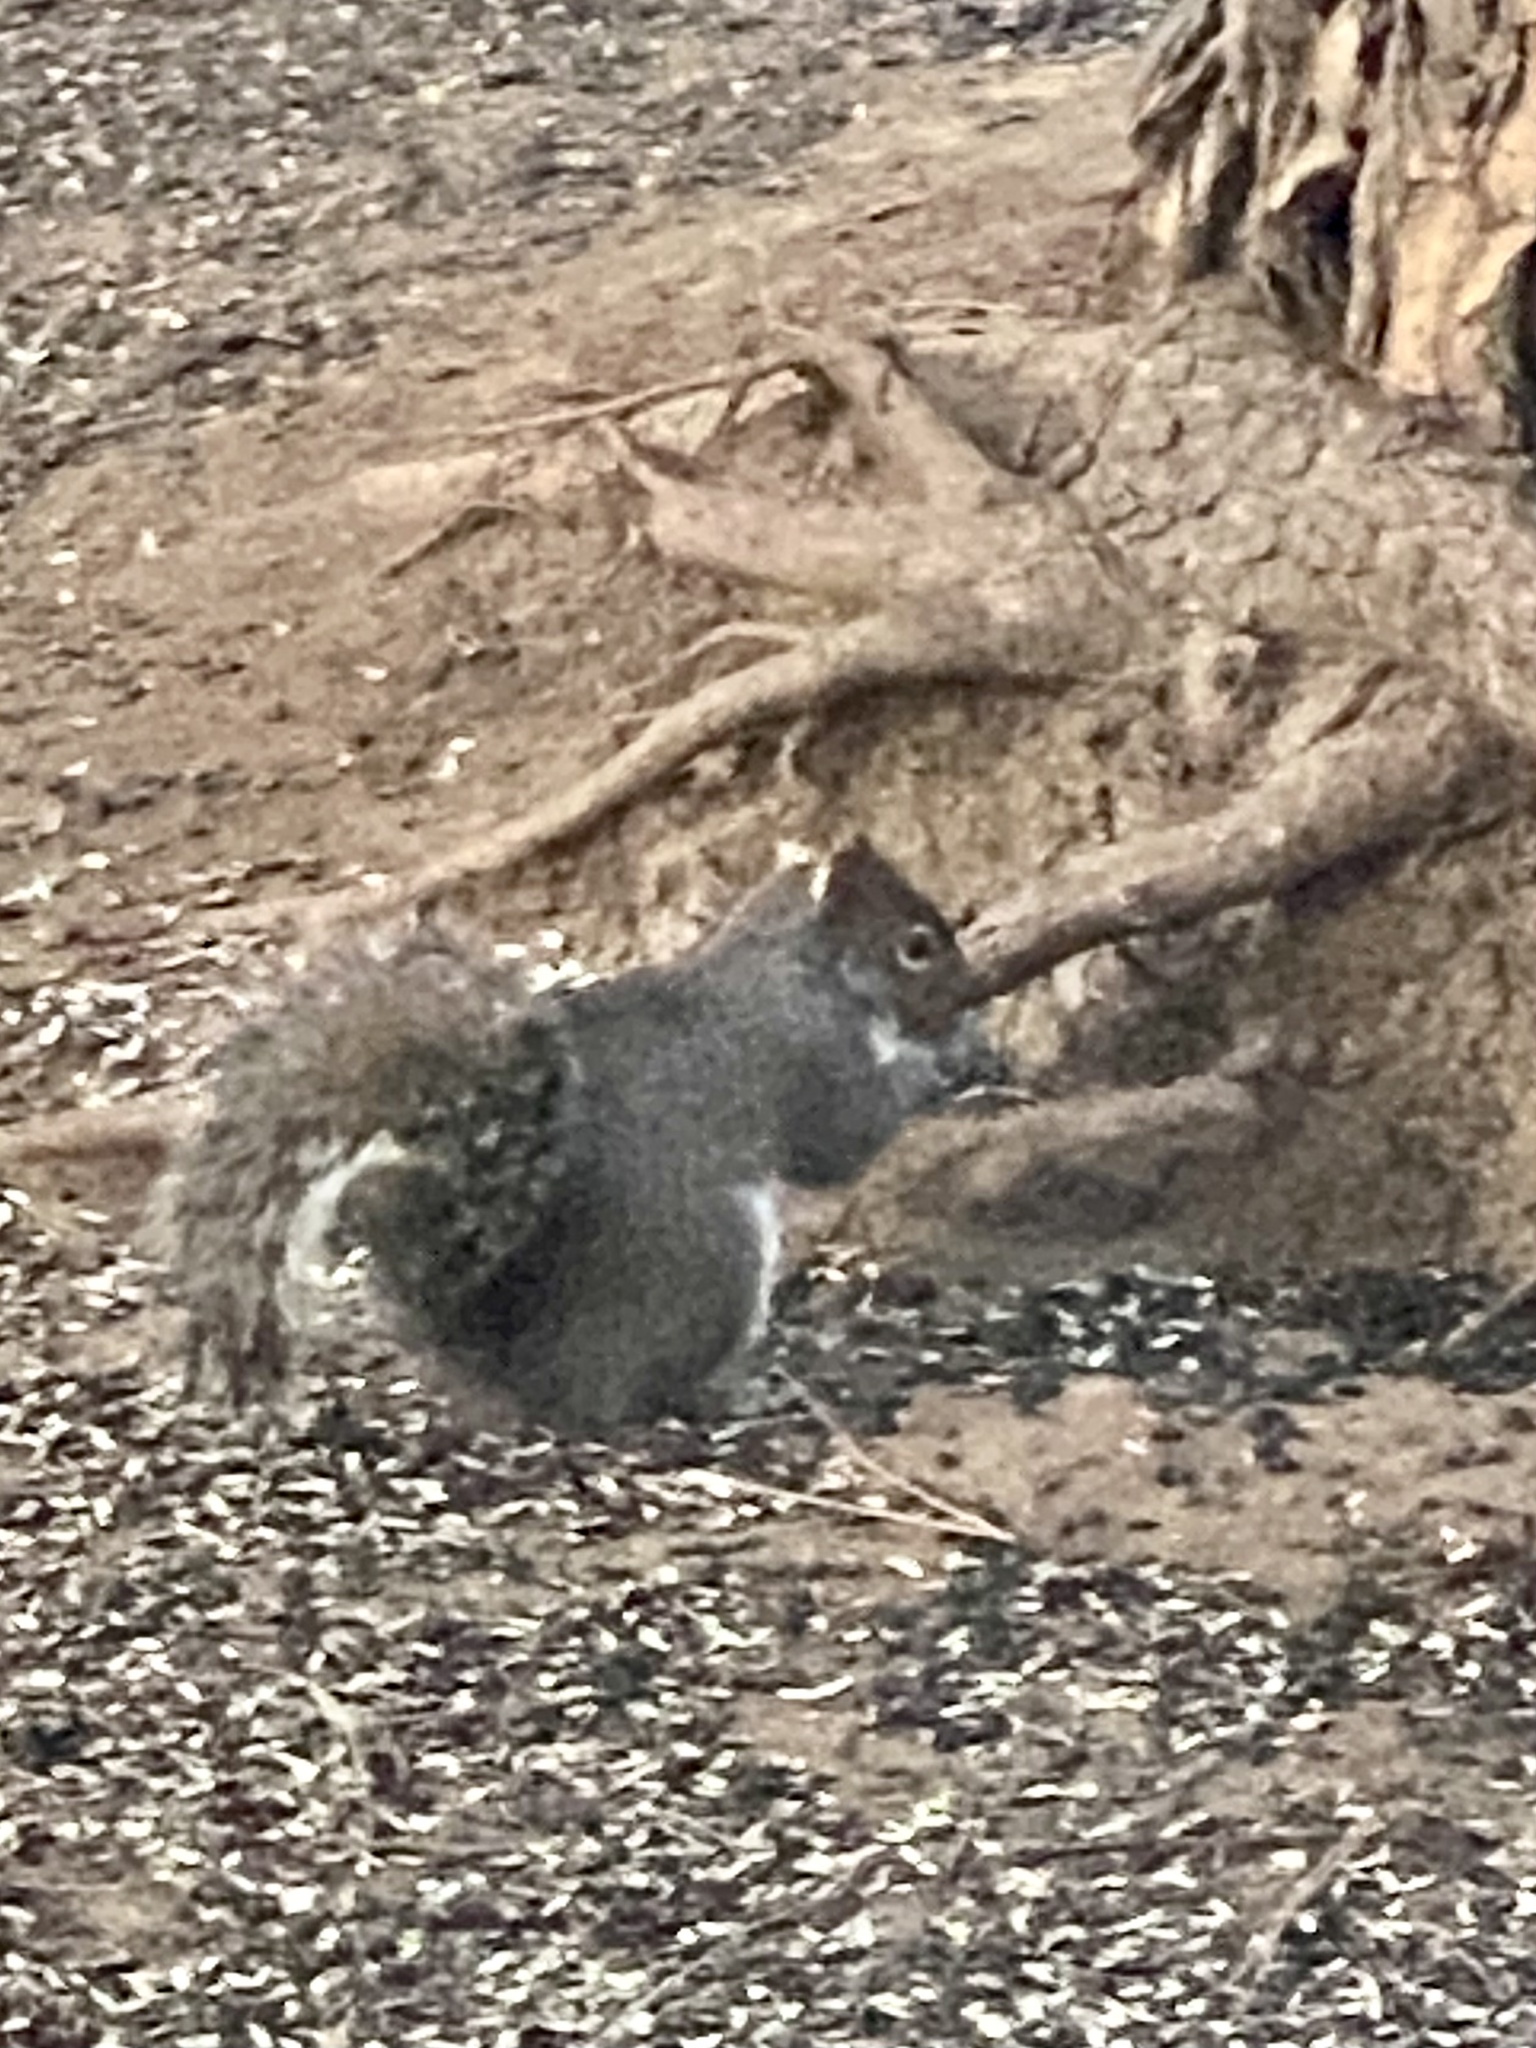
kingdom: Animalia
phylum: Chordata
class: Mammalia
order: Rodentia
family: Sciuridae
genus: Sciurus
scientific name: Sciurus carolinensis
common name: Eastern gray squirrel
